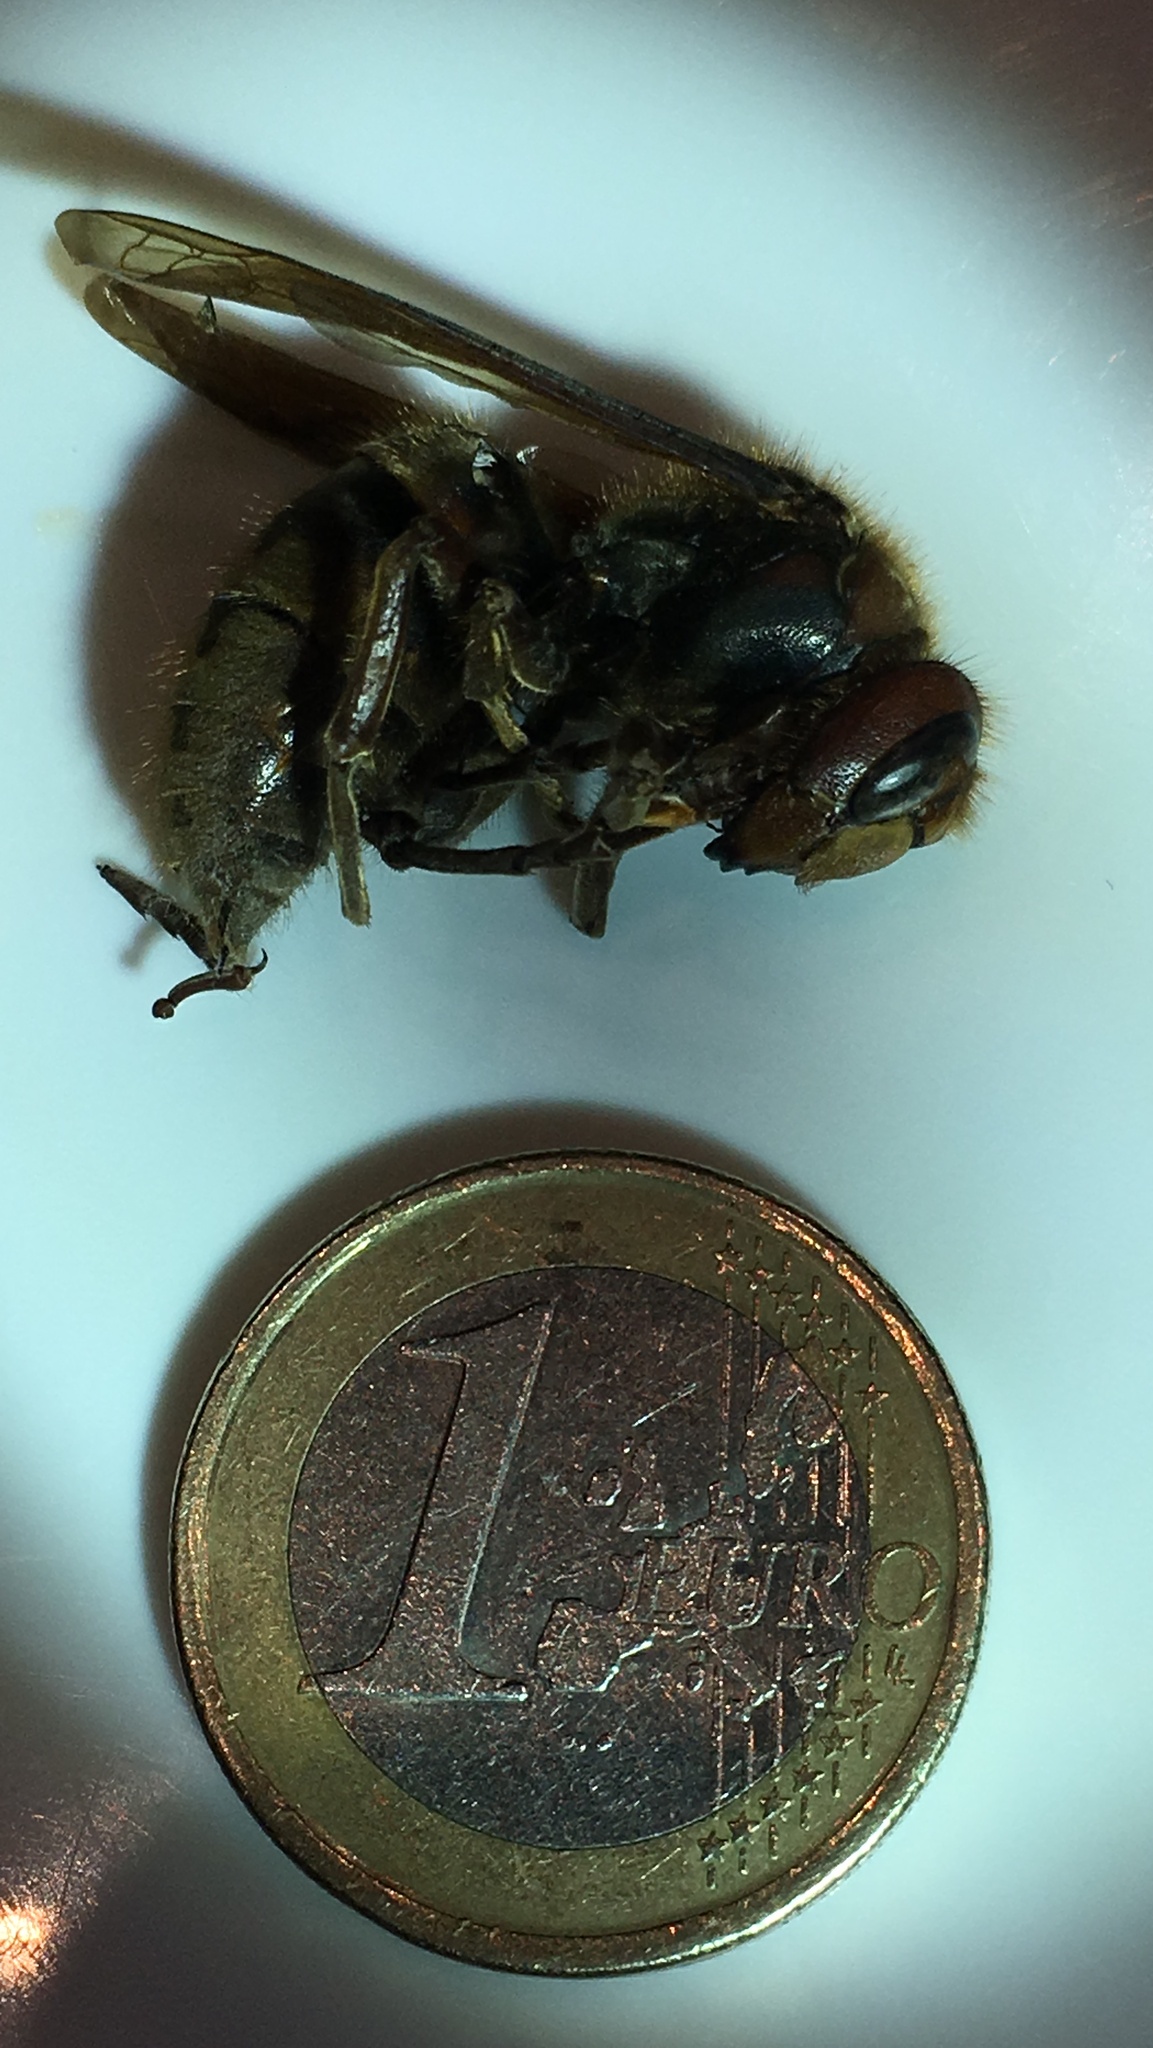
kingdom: Animalia
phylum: Arthropoda
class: Insecta
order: Hymenoptera
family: Vespidae
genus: Vespa
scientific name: Vespa crabro
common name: Hornet
